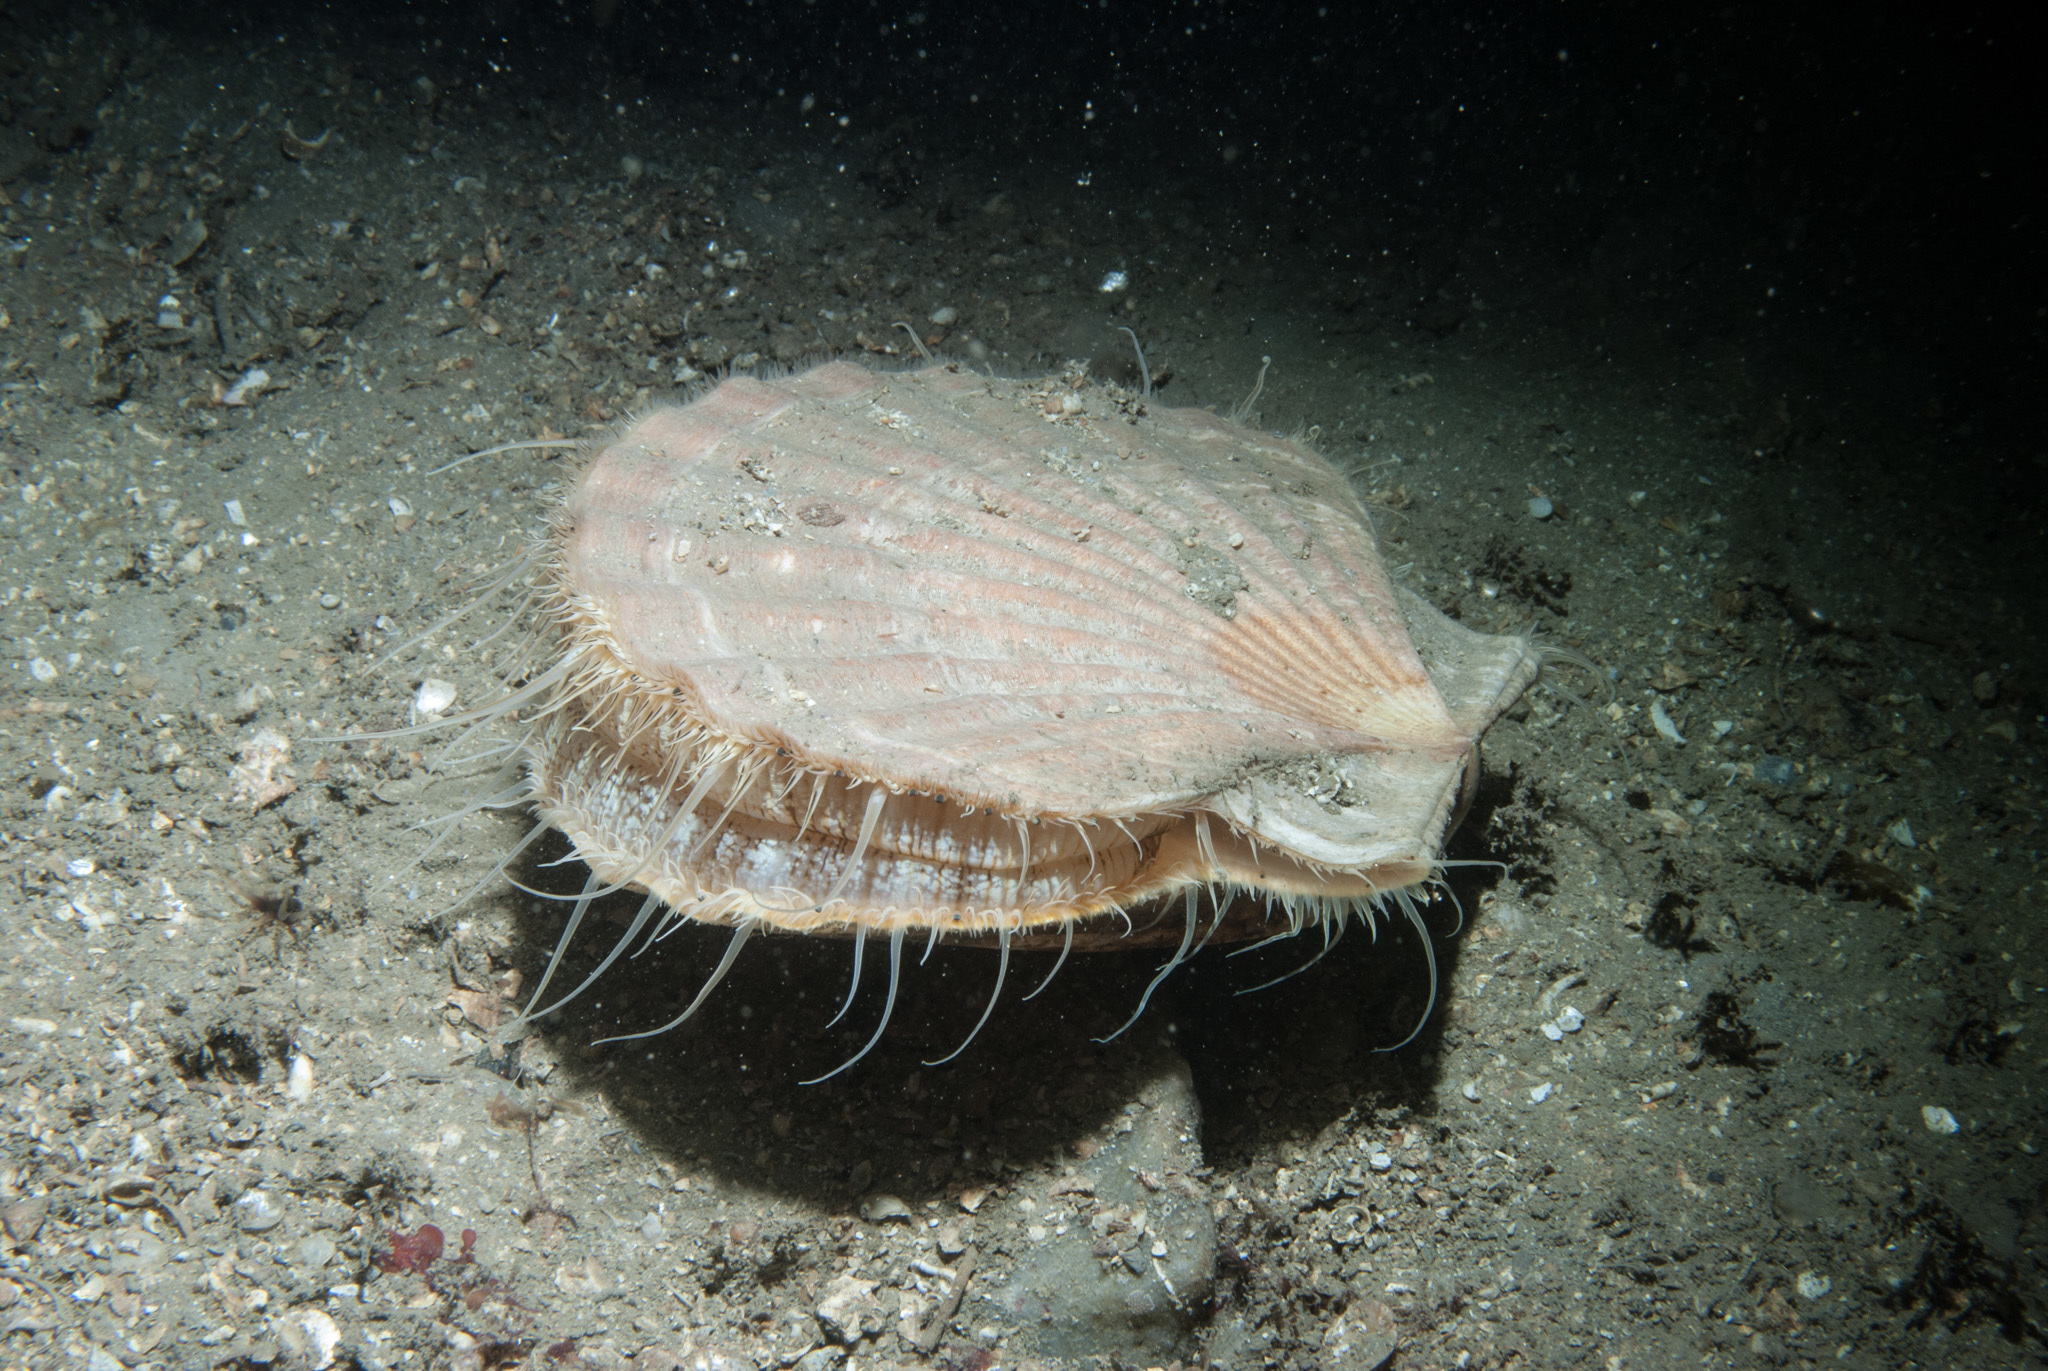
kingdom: Animalia
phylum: Mollusca
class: Bivalvia
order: Pectinida
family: Pectinidae
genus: Pecten
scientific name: Pecten maximus
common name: Great scallop
